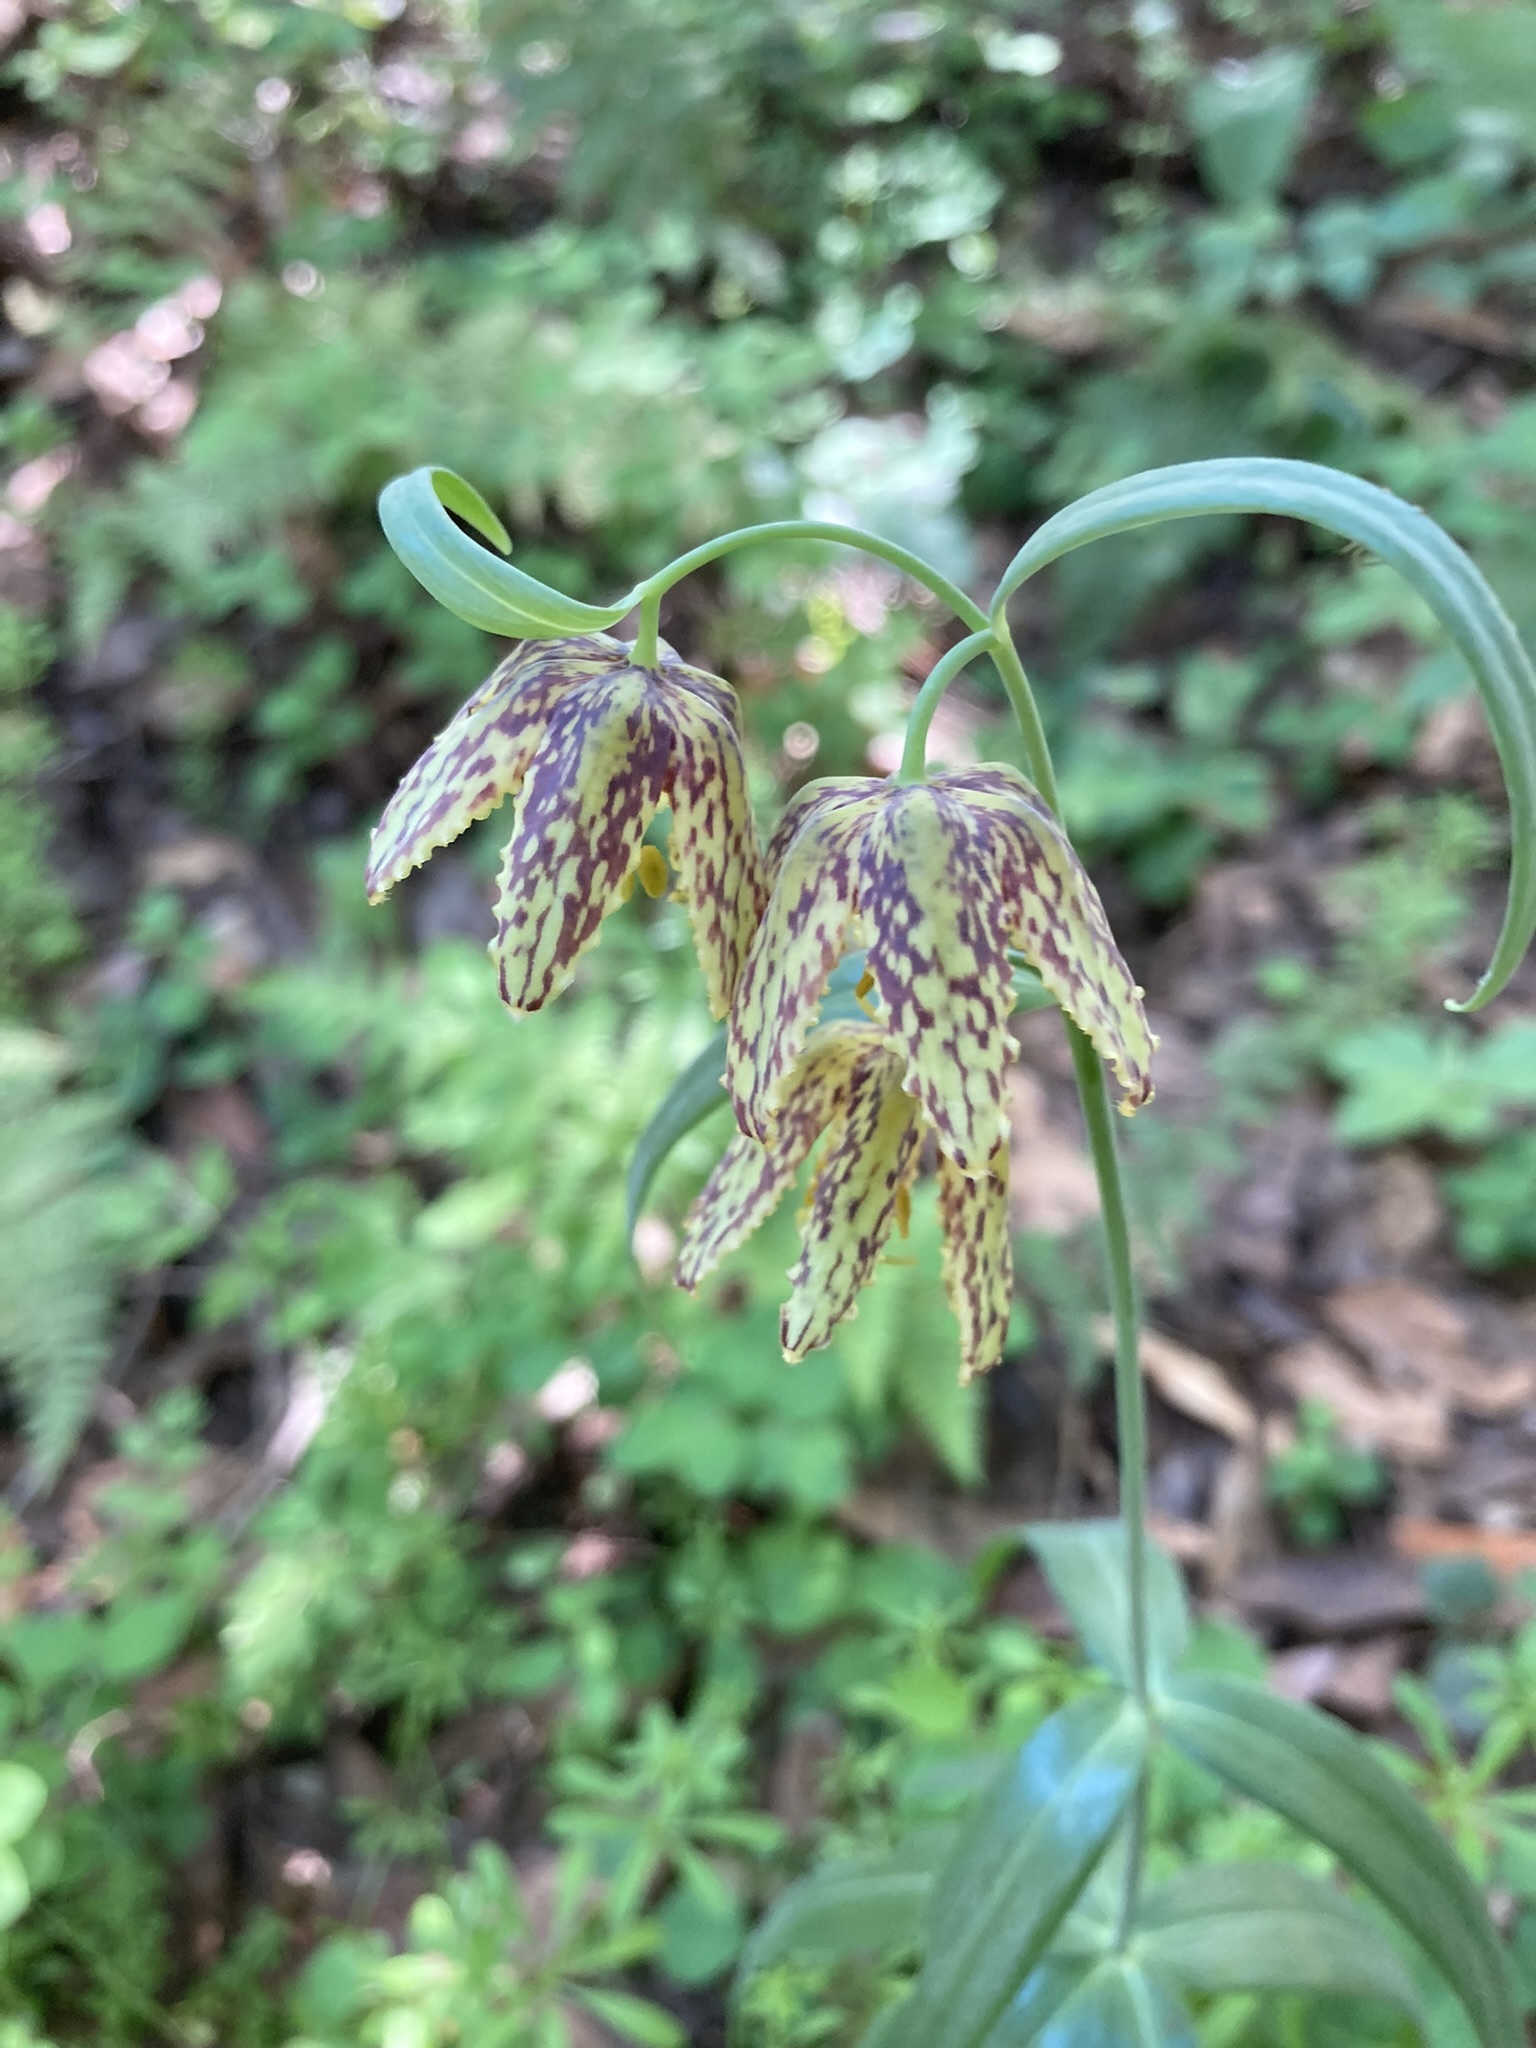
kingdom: Plantae
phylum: Tracheophyta
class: Liliopsida
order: Liliales
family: Liliaceae
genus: Fritillaria
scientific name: Fritillaria affinis
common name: Ojai fritillary
